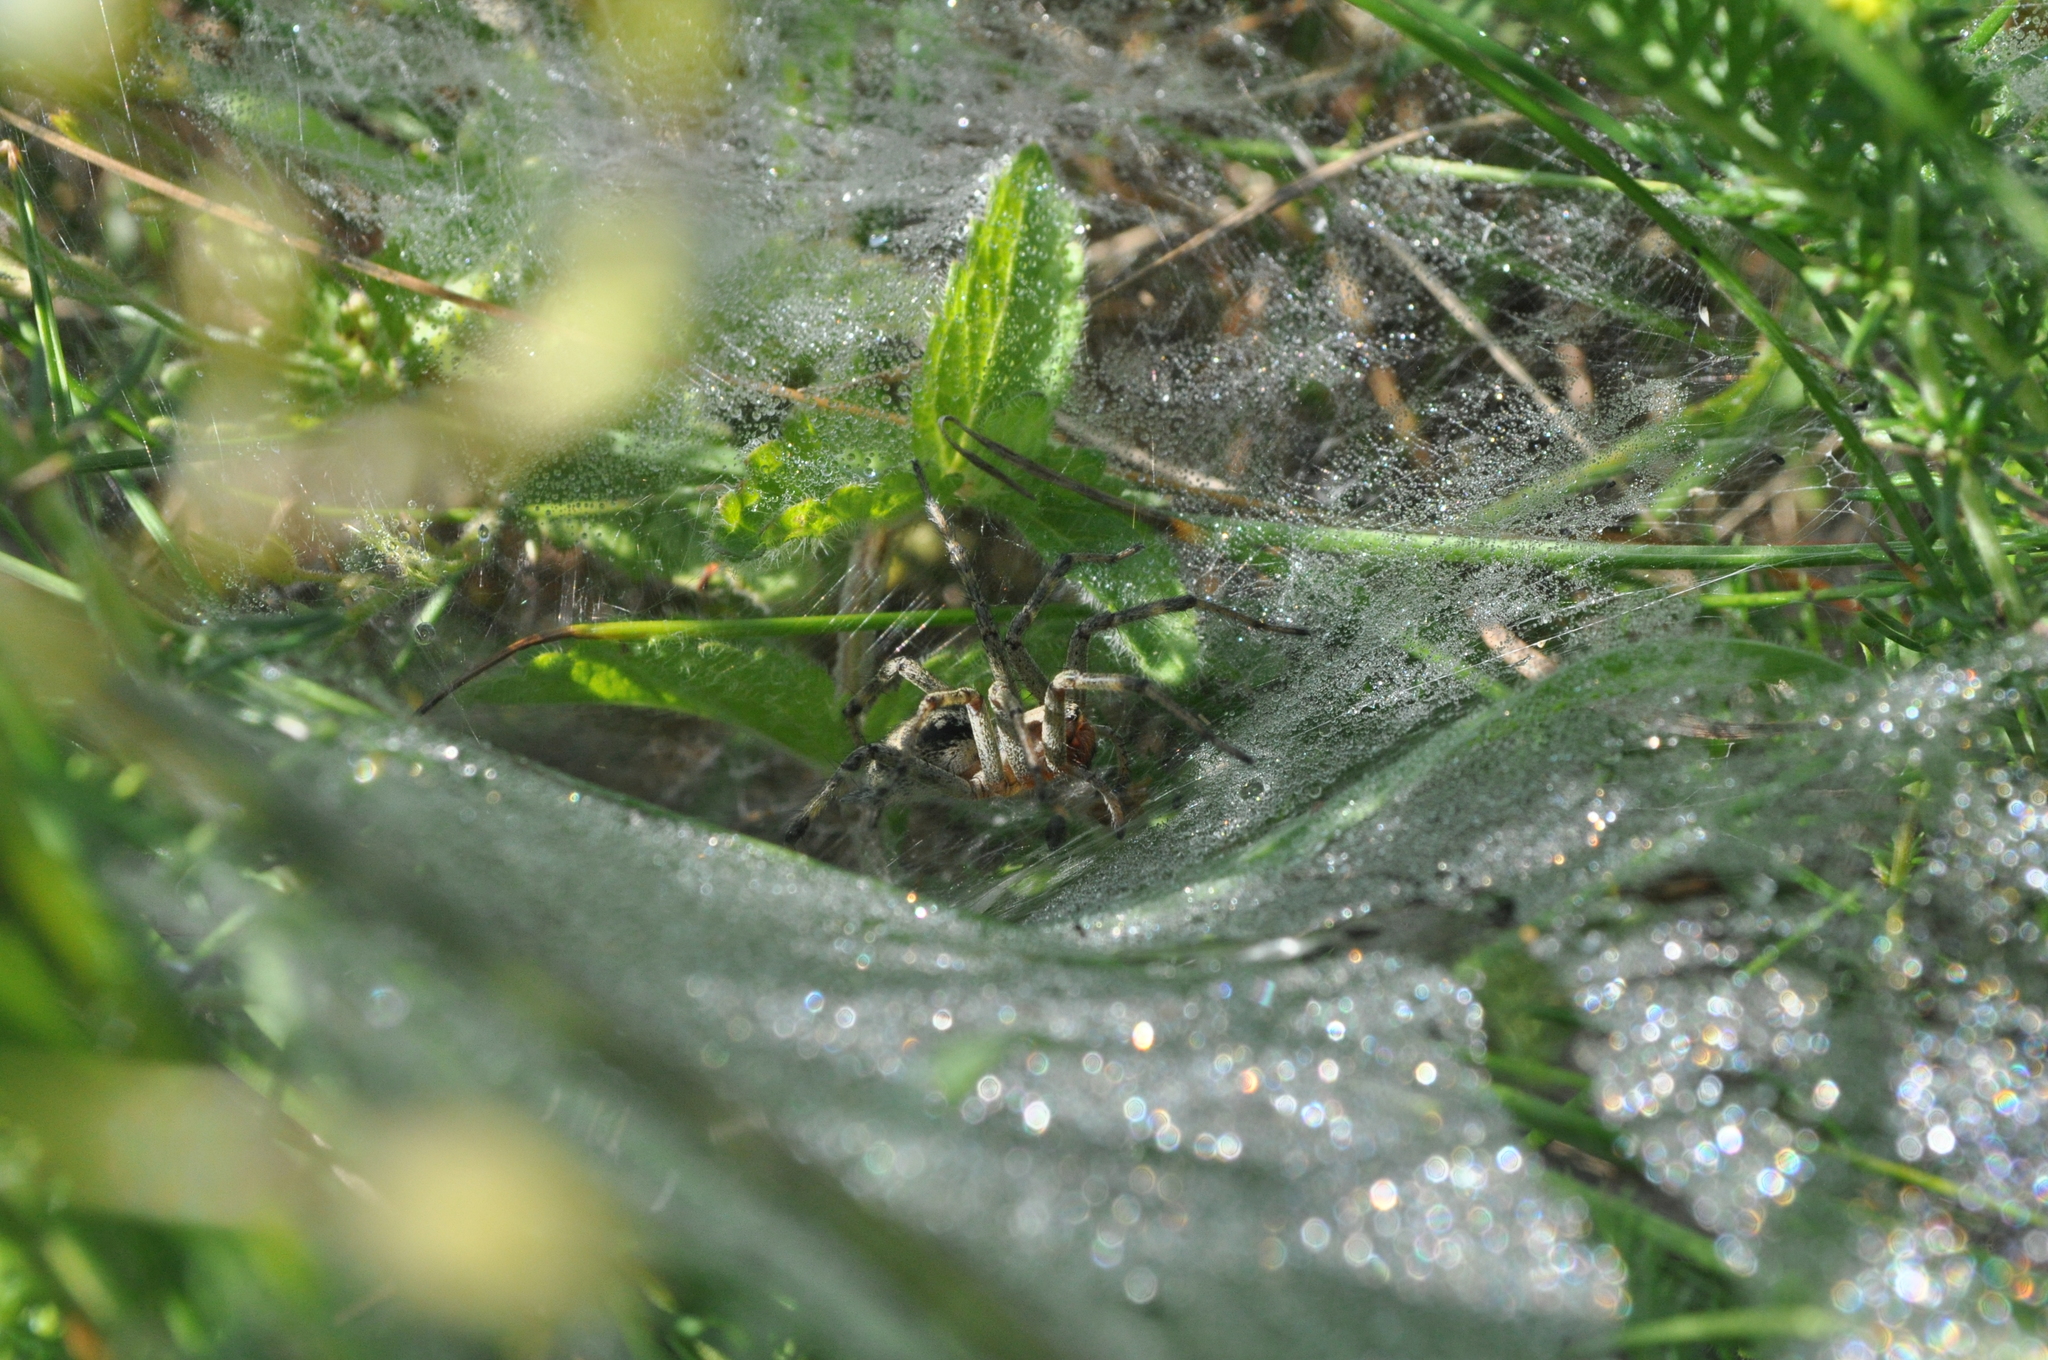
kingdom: Animalia
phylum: Arthropoda
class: Arachnida
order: Araneae
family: Agelenidae
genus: Agelena
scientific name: Agelena labyrinthica
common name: Labyrinth spider
